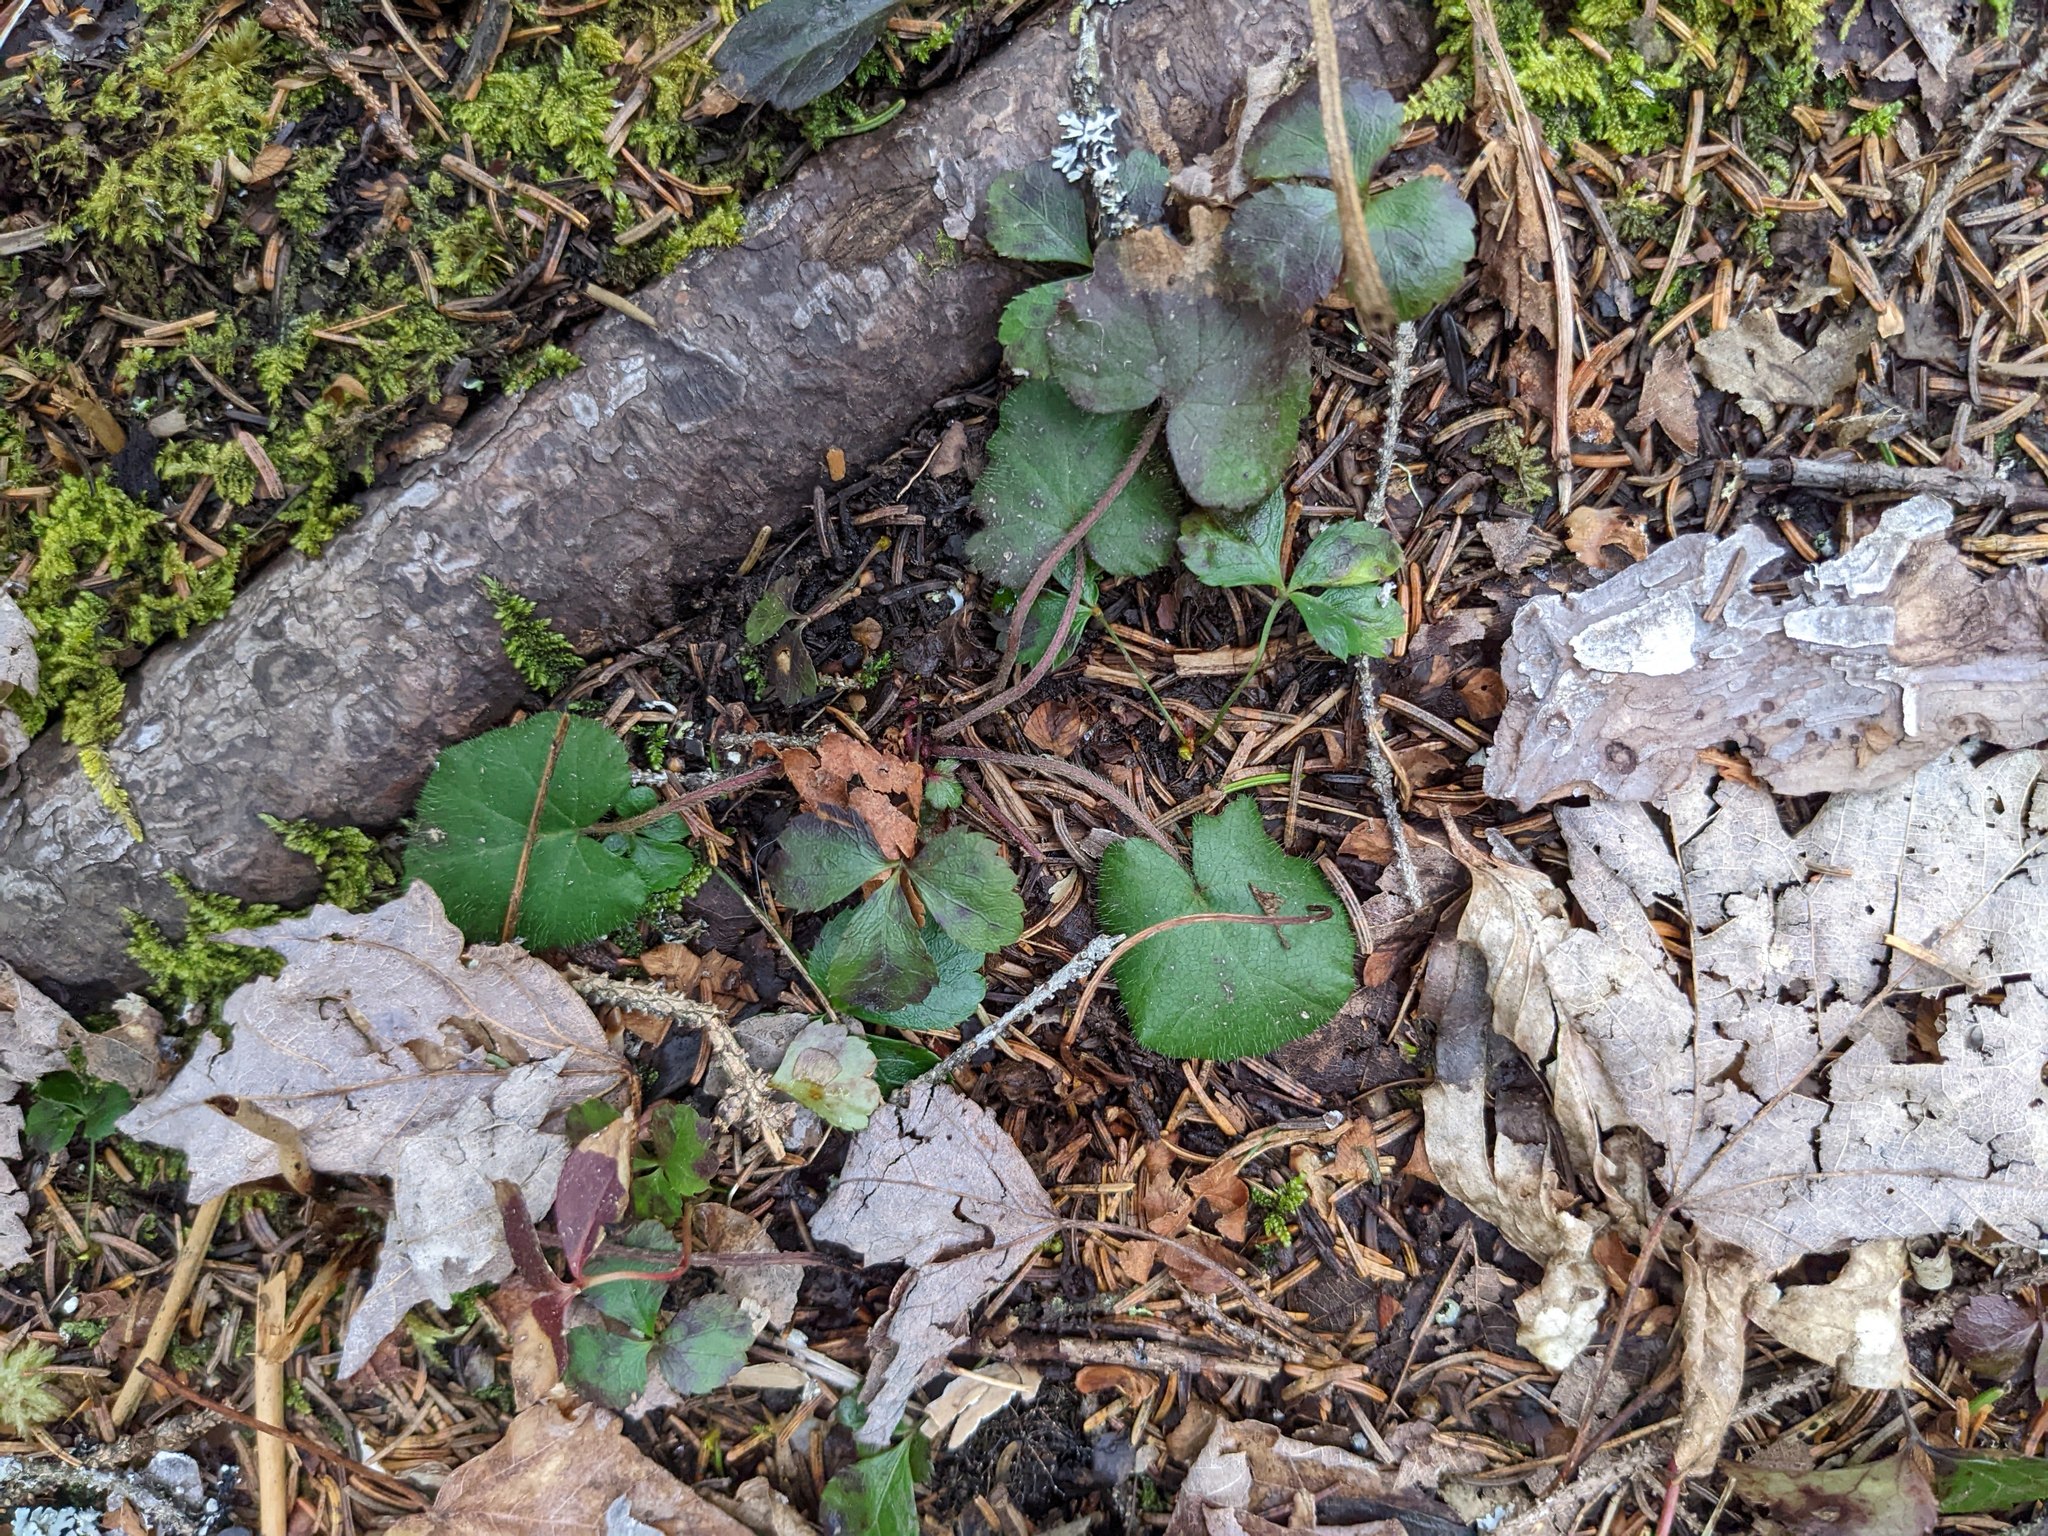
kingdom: Plantae
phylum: Tracheophyta
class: Magnoliopsida
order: Rosales
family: Rosaceae
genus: Dalibarda
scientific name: Dalibarda repens
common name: Dewdrop
